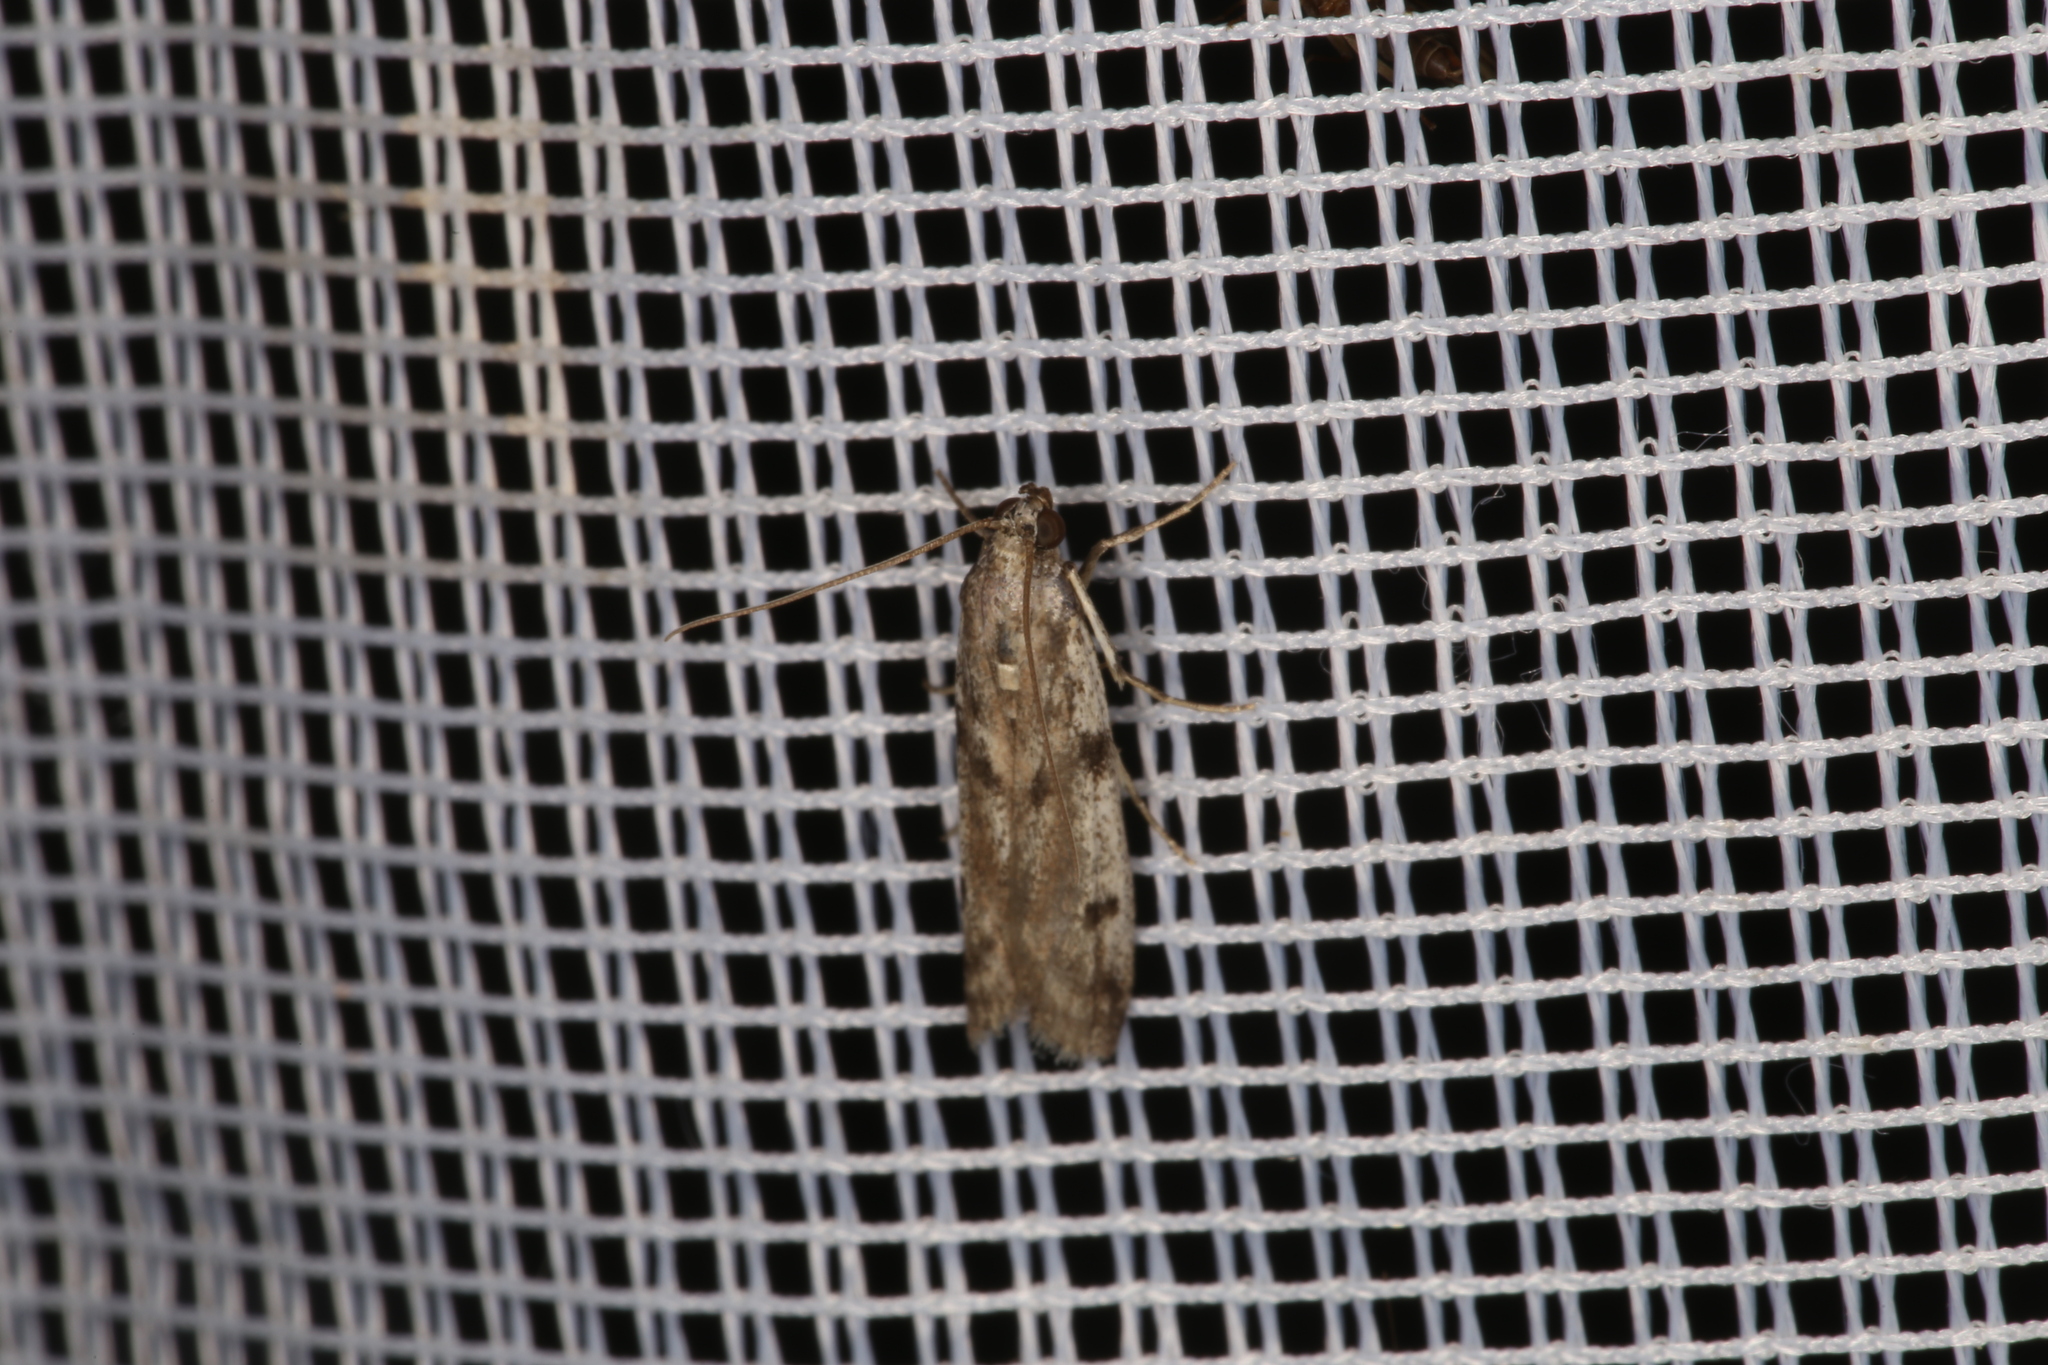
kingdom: Animalia
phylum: Arthropoda
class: Insecta
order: Lepidoptera
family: Pyralidae
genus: Phycitodes
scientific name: Phycitodes binaevella
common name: Ermine knot-horn
